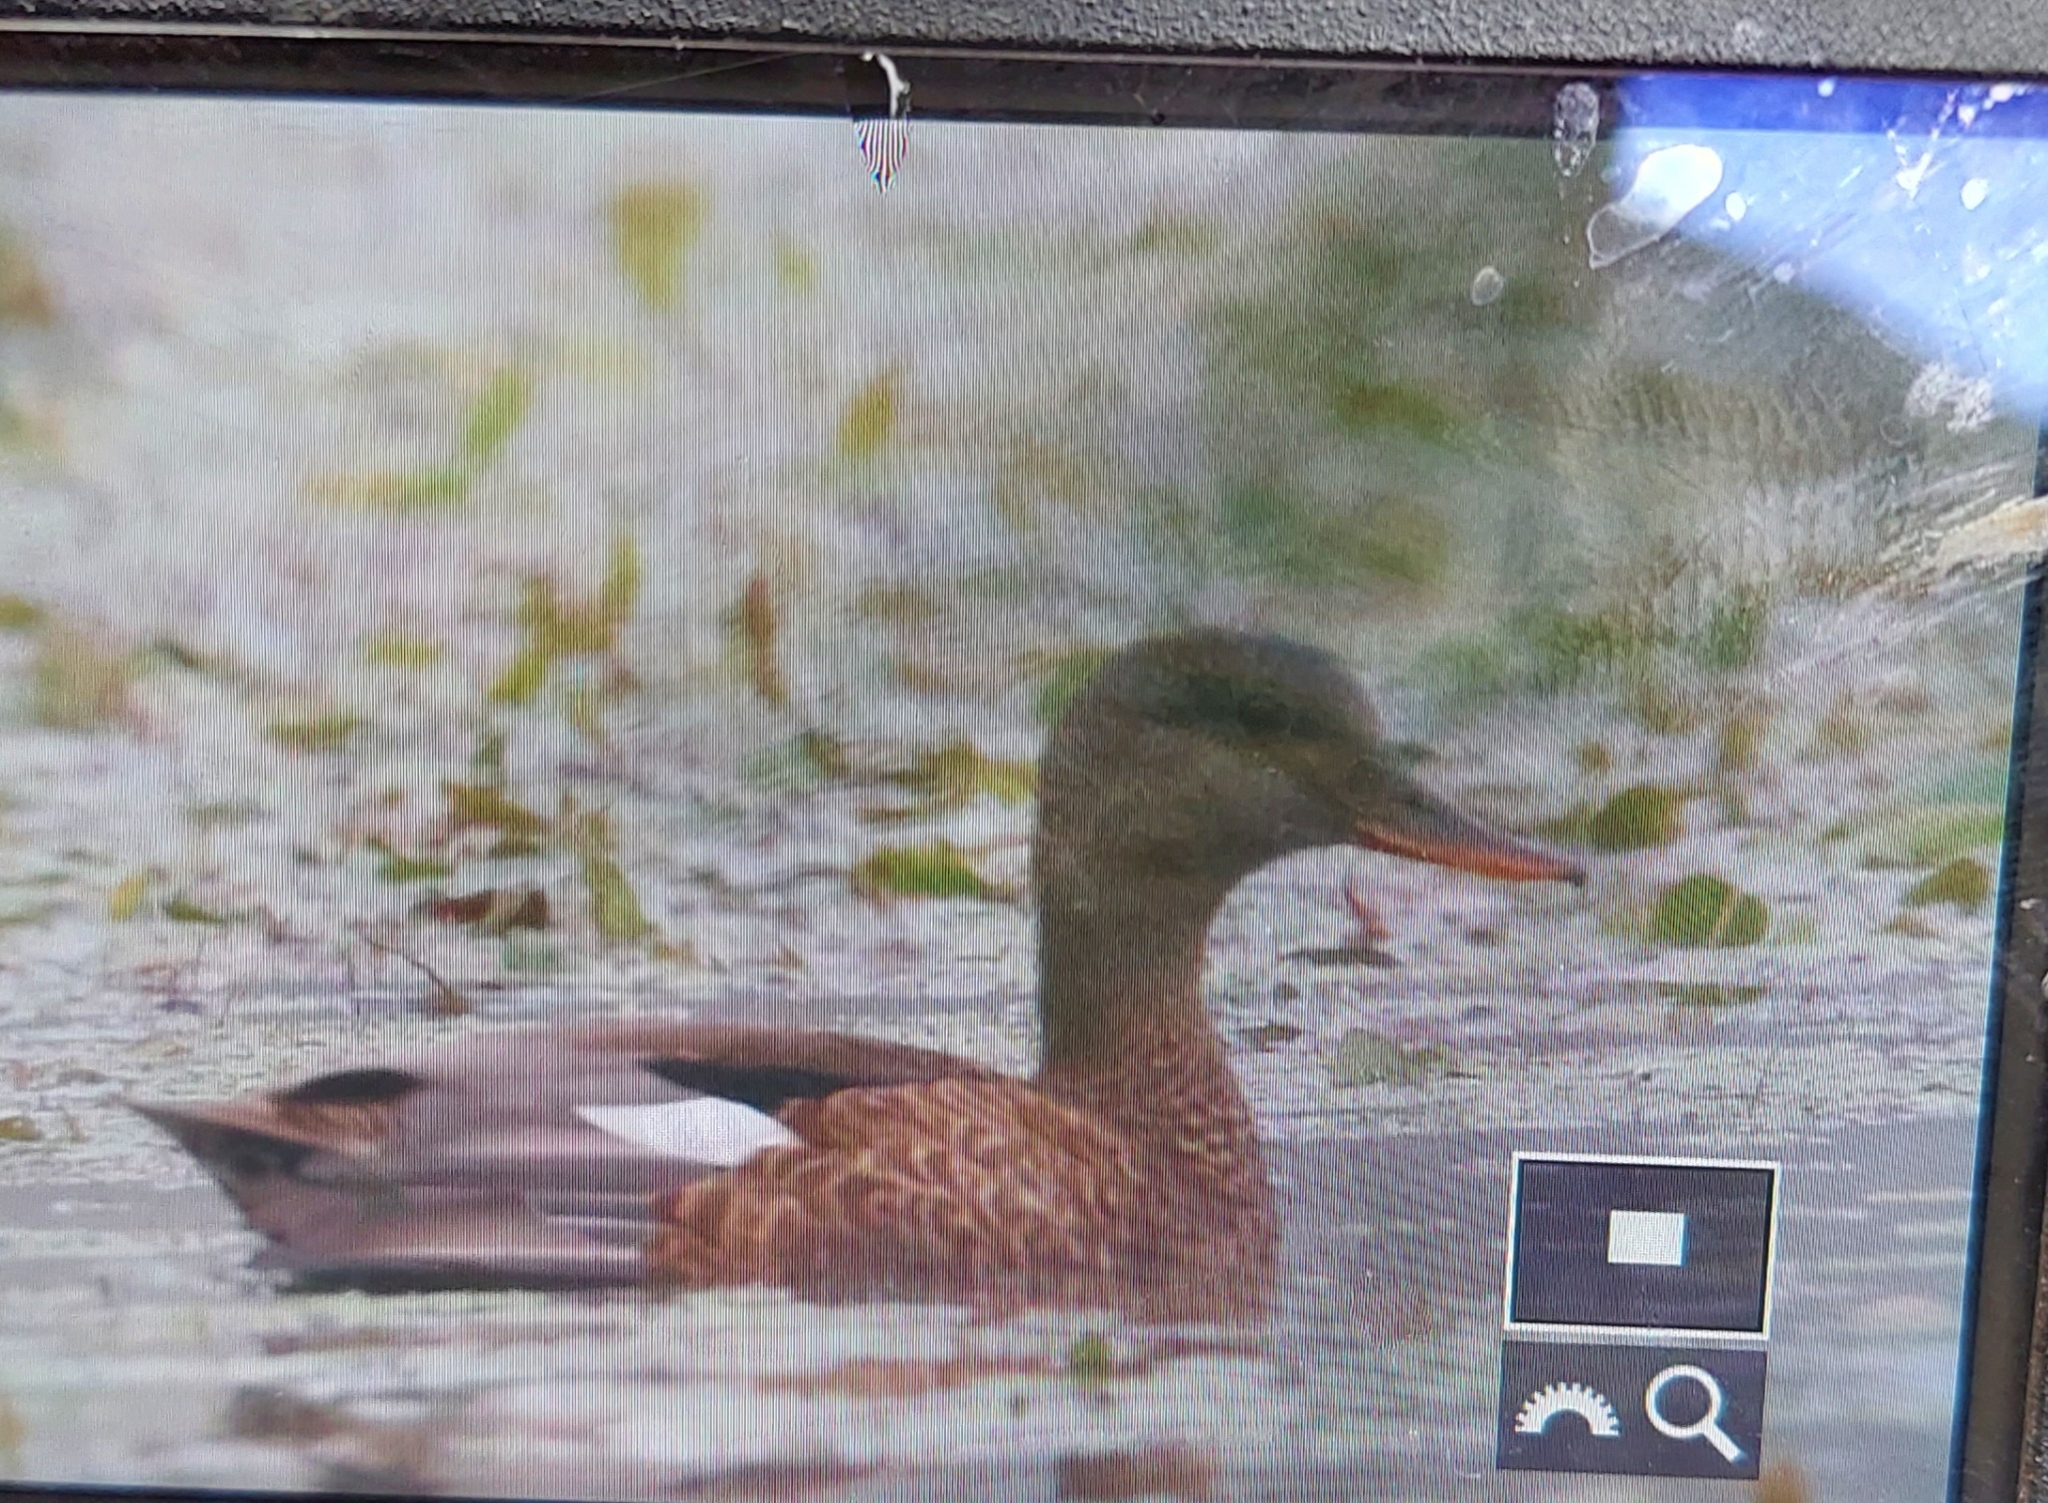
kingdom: Animalia
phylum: Chordata
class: Aves
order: Anseriformes
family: Anatidae
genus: Mareca
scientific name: Mareca strepera
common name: Gadwall
